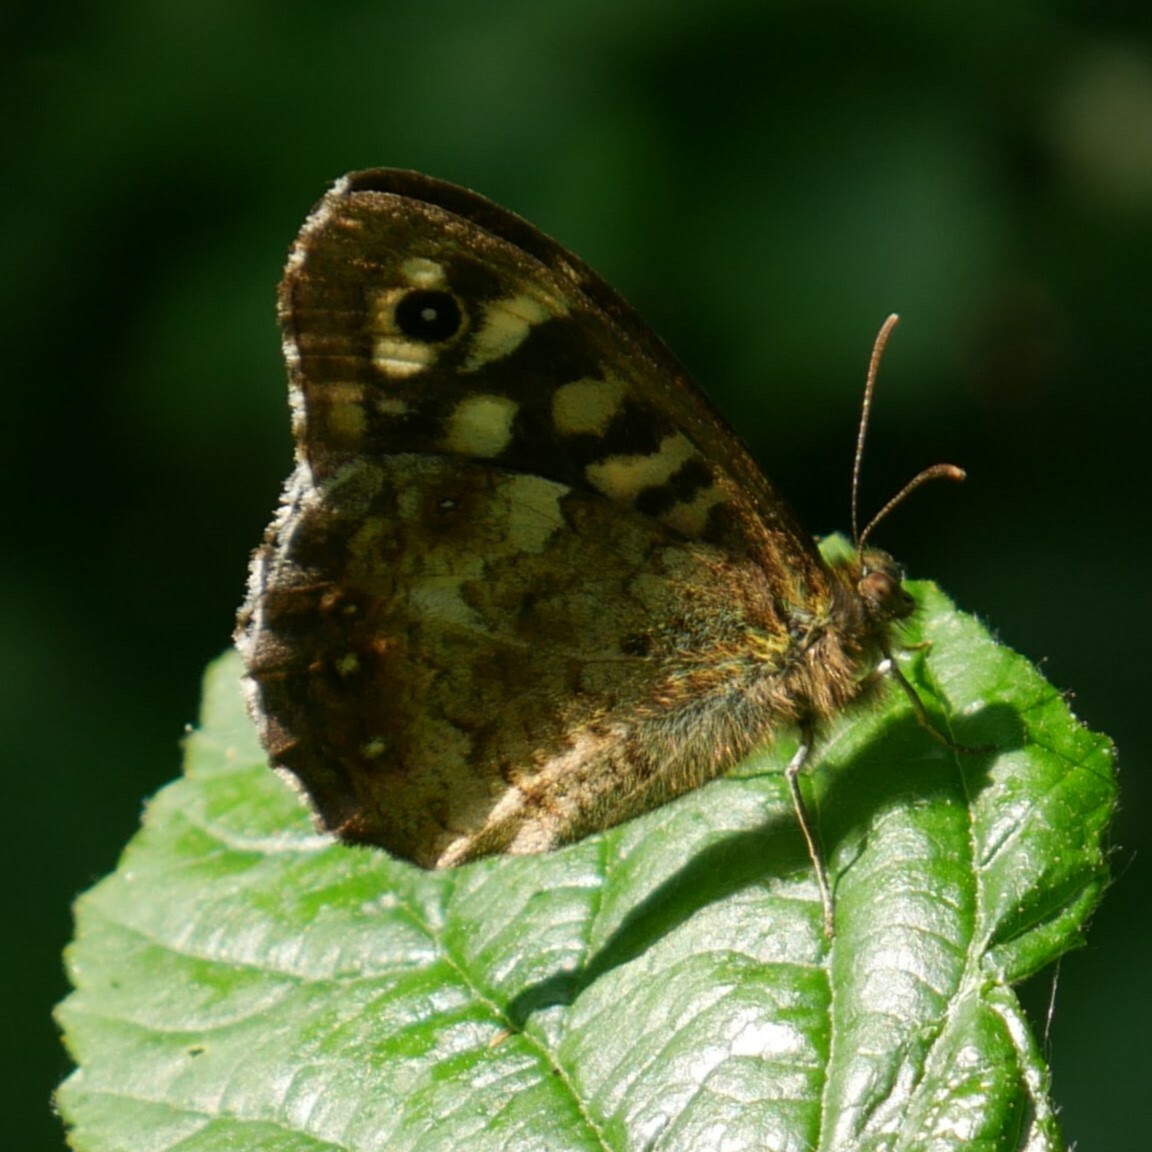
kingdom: Animalia
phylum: Arthropoda
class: Insecta
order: Lepidoptera
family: Nymphalidae
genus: Pararge
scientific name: Pararge aegeria
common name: Speckled wood
